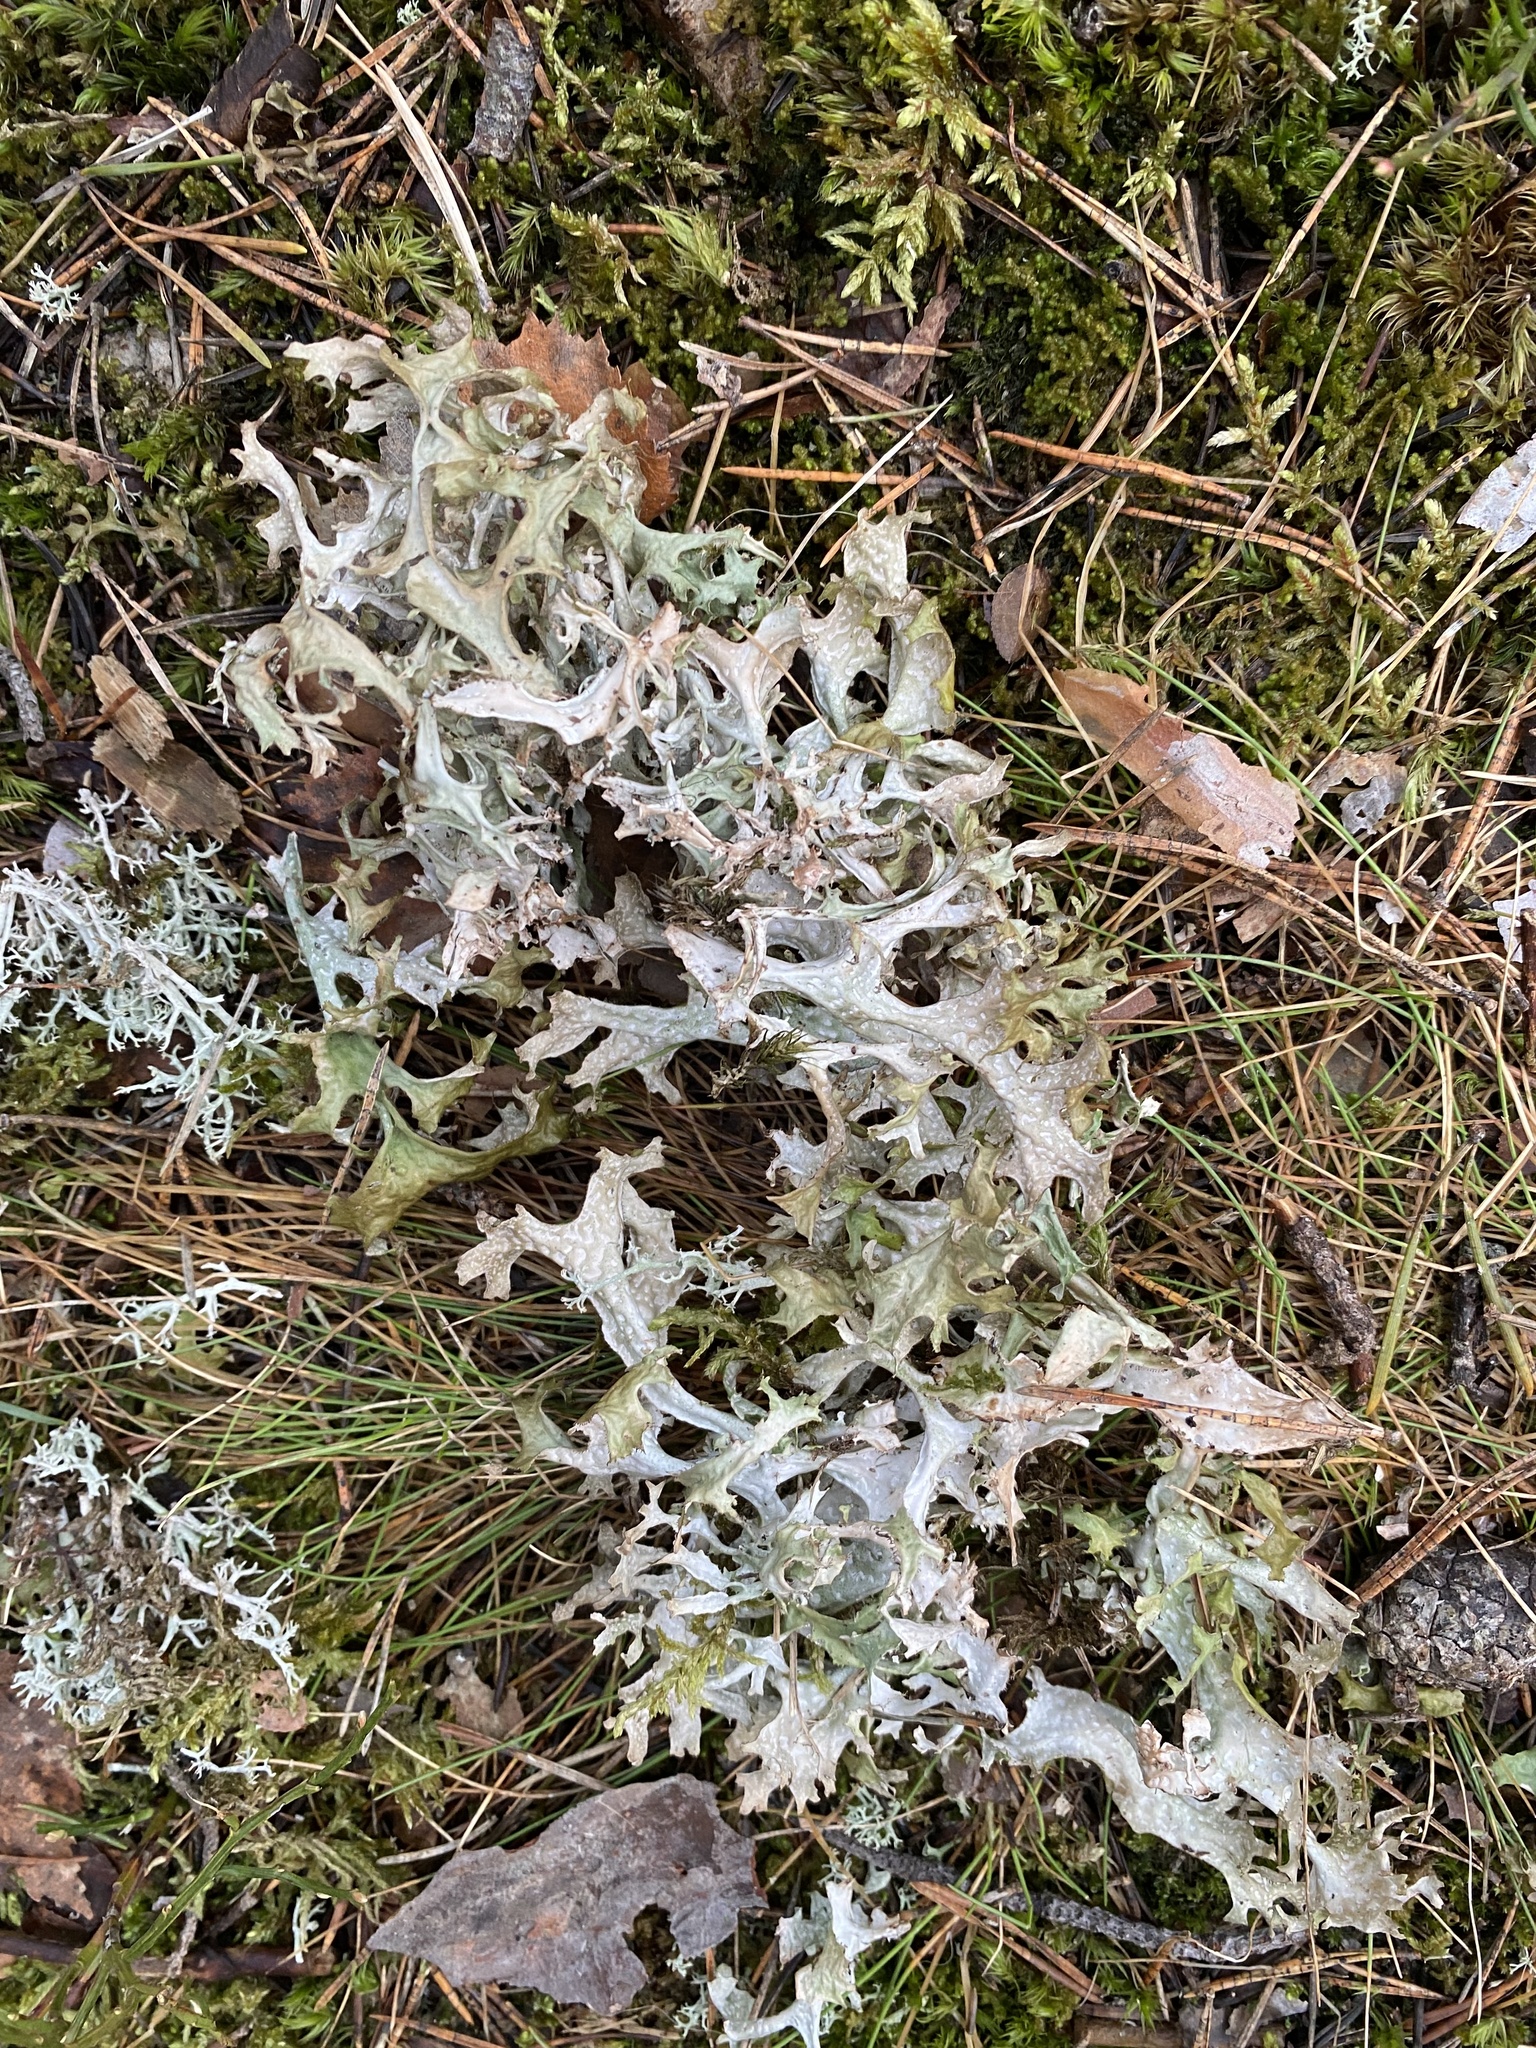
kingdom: Fungi
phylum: Ascomycota
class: Lecanoromycetes
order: Lecanorales
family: Parmeliaceae
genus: Cetraria
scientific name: Cetraria islandica
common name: Iceland lichen
